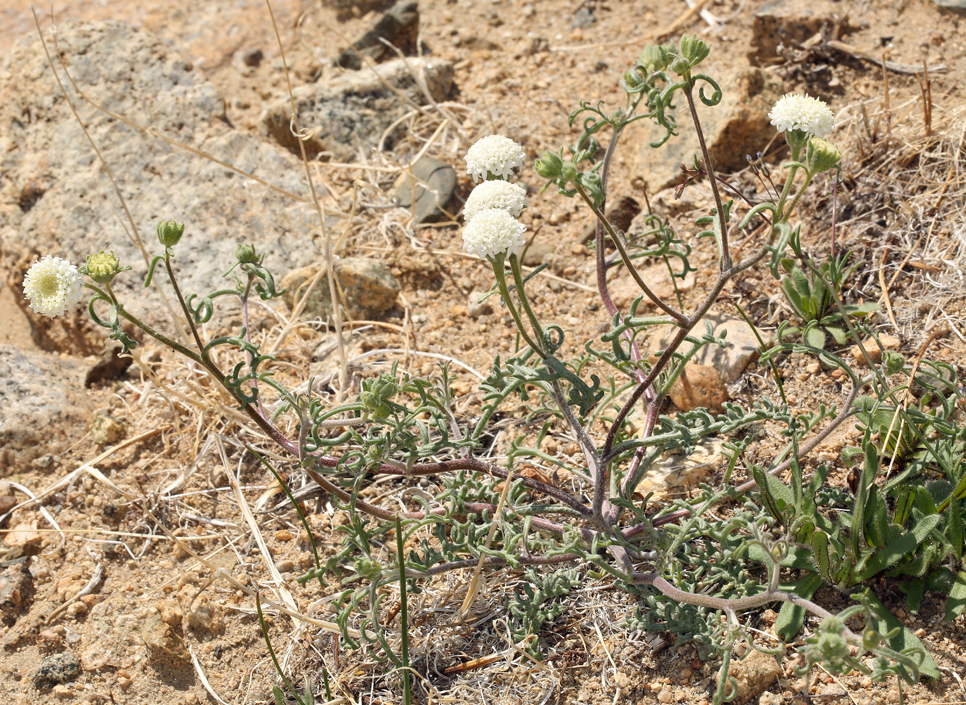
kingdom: Plantae
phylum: Tracheophyta
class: Magnoliopsida
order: Asterales
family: Asteraceae
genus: Chaenactis
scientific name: Chaenactis stevioides
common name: Desert pincushion
